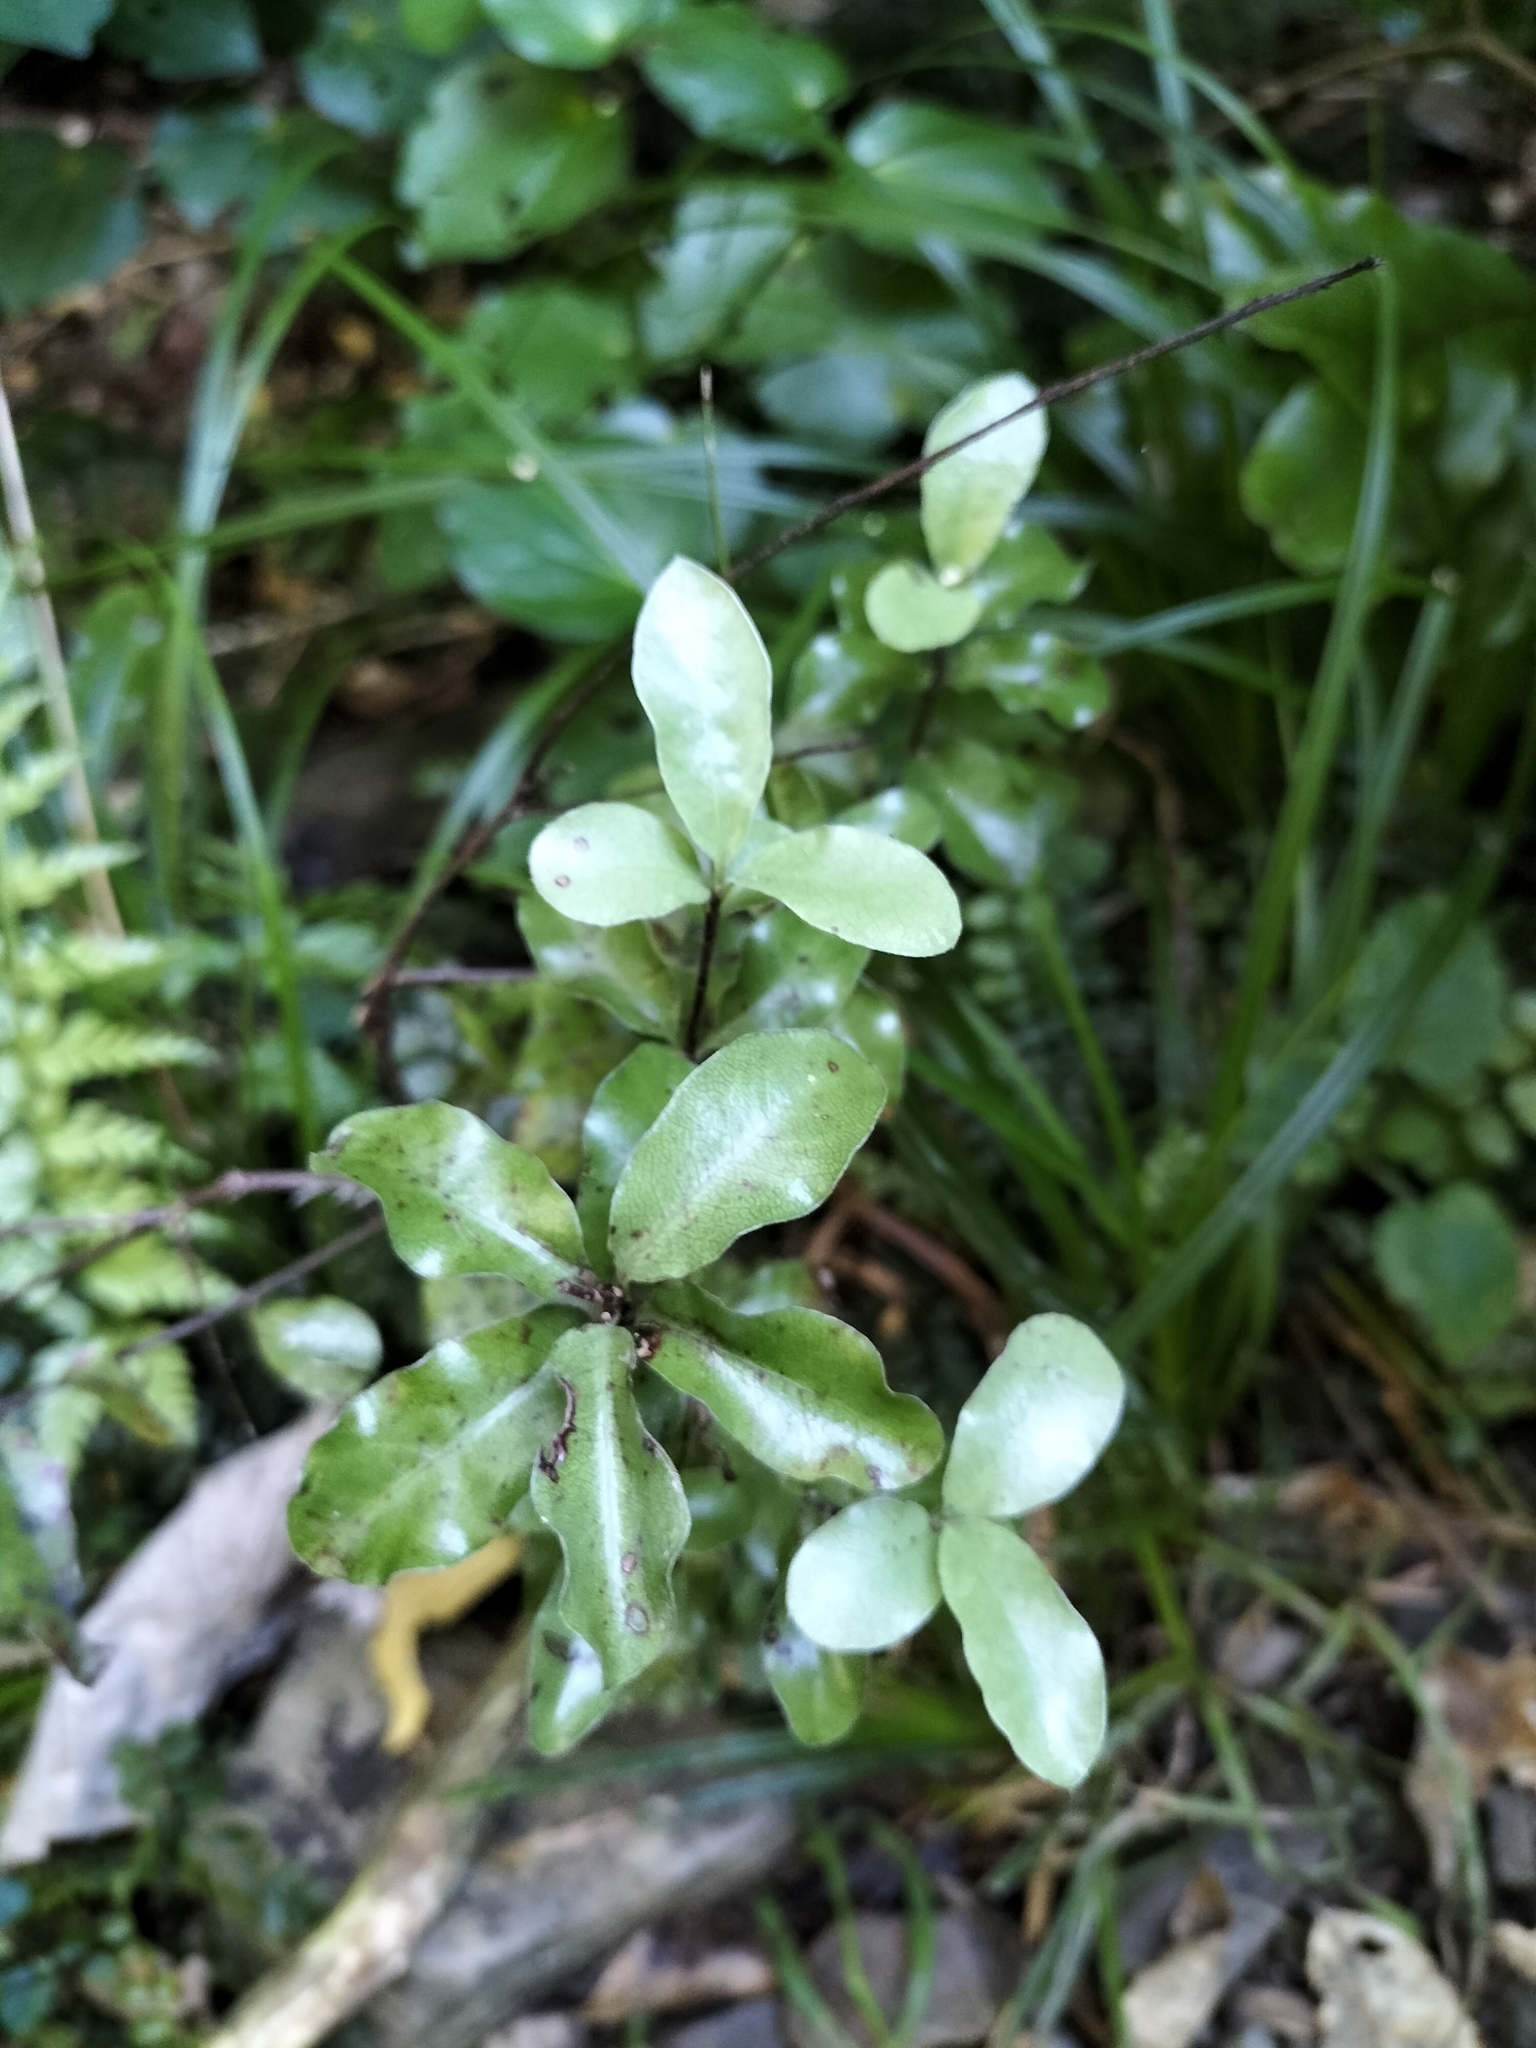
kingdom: Plantae
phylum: Tracheophyta
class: Magnoliopsida
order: Apiales
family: Pittosporaceae
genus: Pittosporum
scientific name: Pittosporum tenuifolium
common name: Kohuhu
